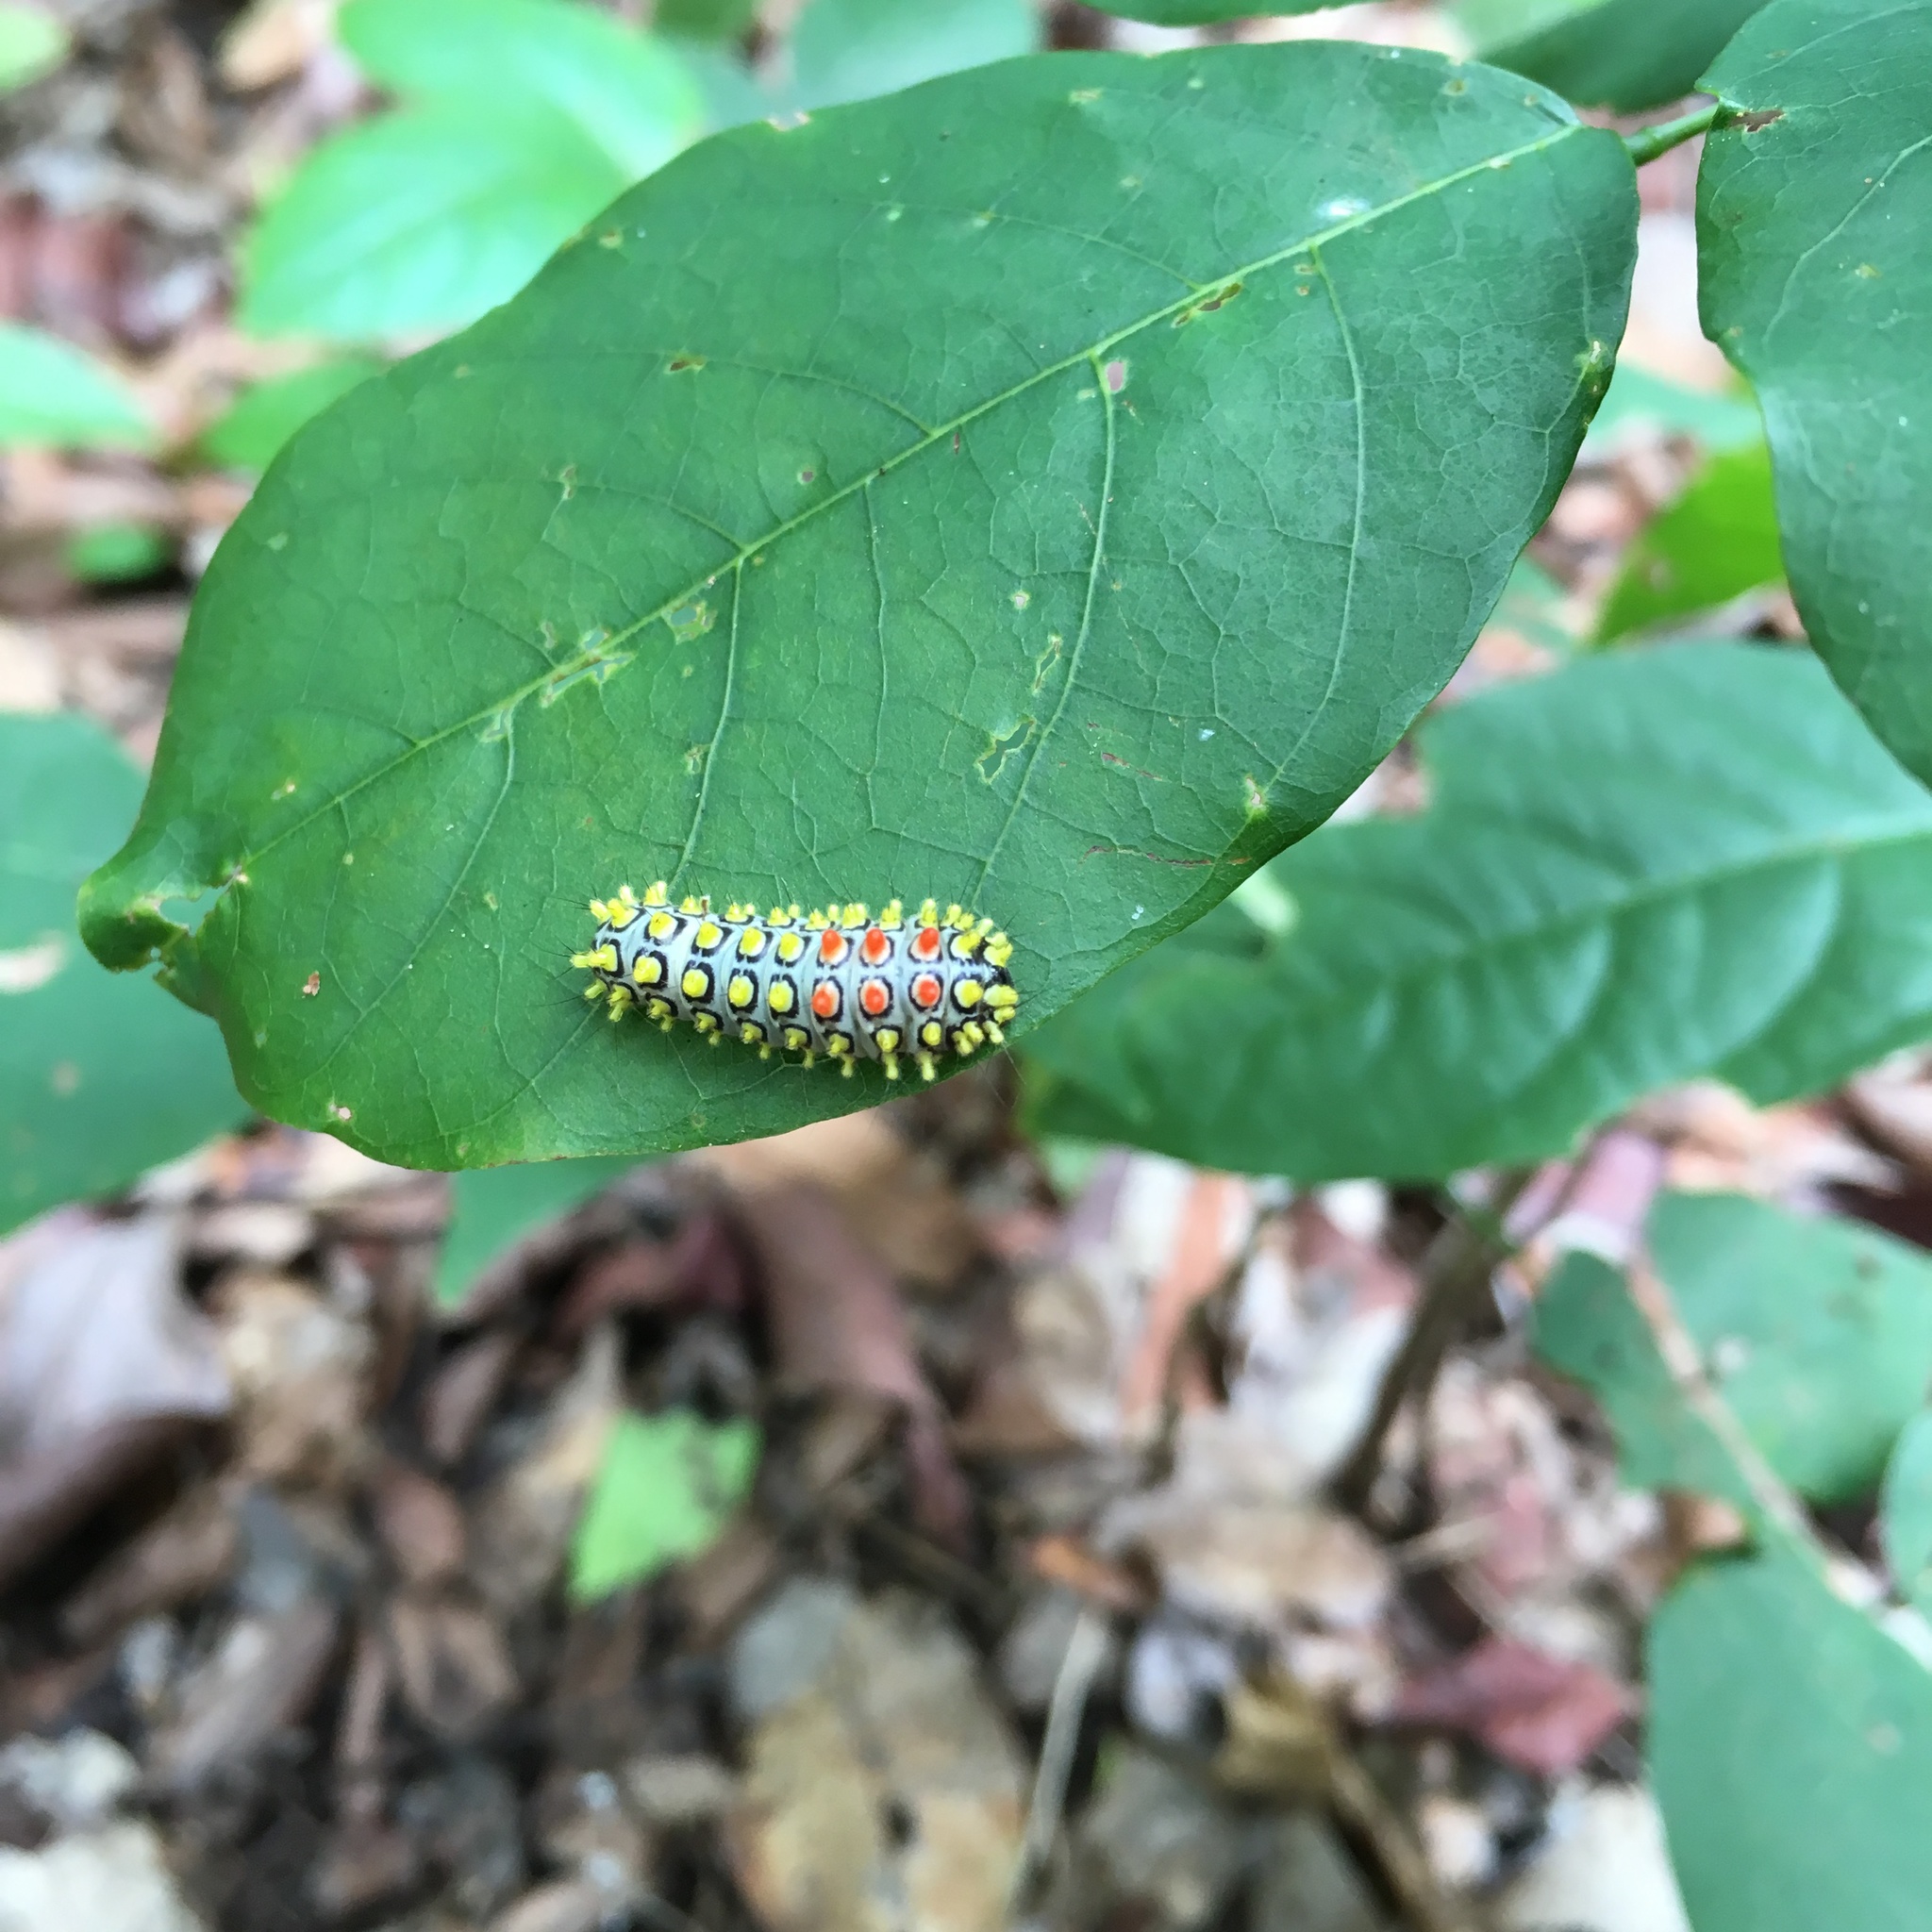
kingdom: Animalia
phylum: Arthropoda
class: Insecta
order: Lepidoptera
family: Zygaenidae
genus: Cyclosia
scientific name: Cyclosia papilionaris
